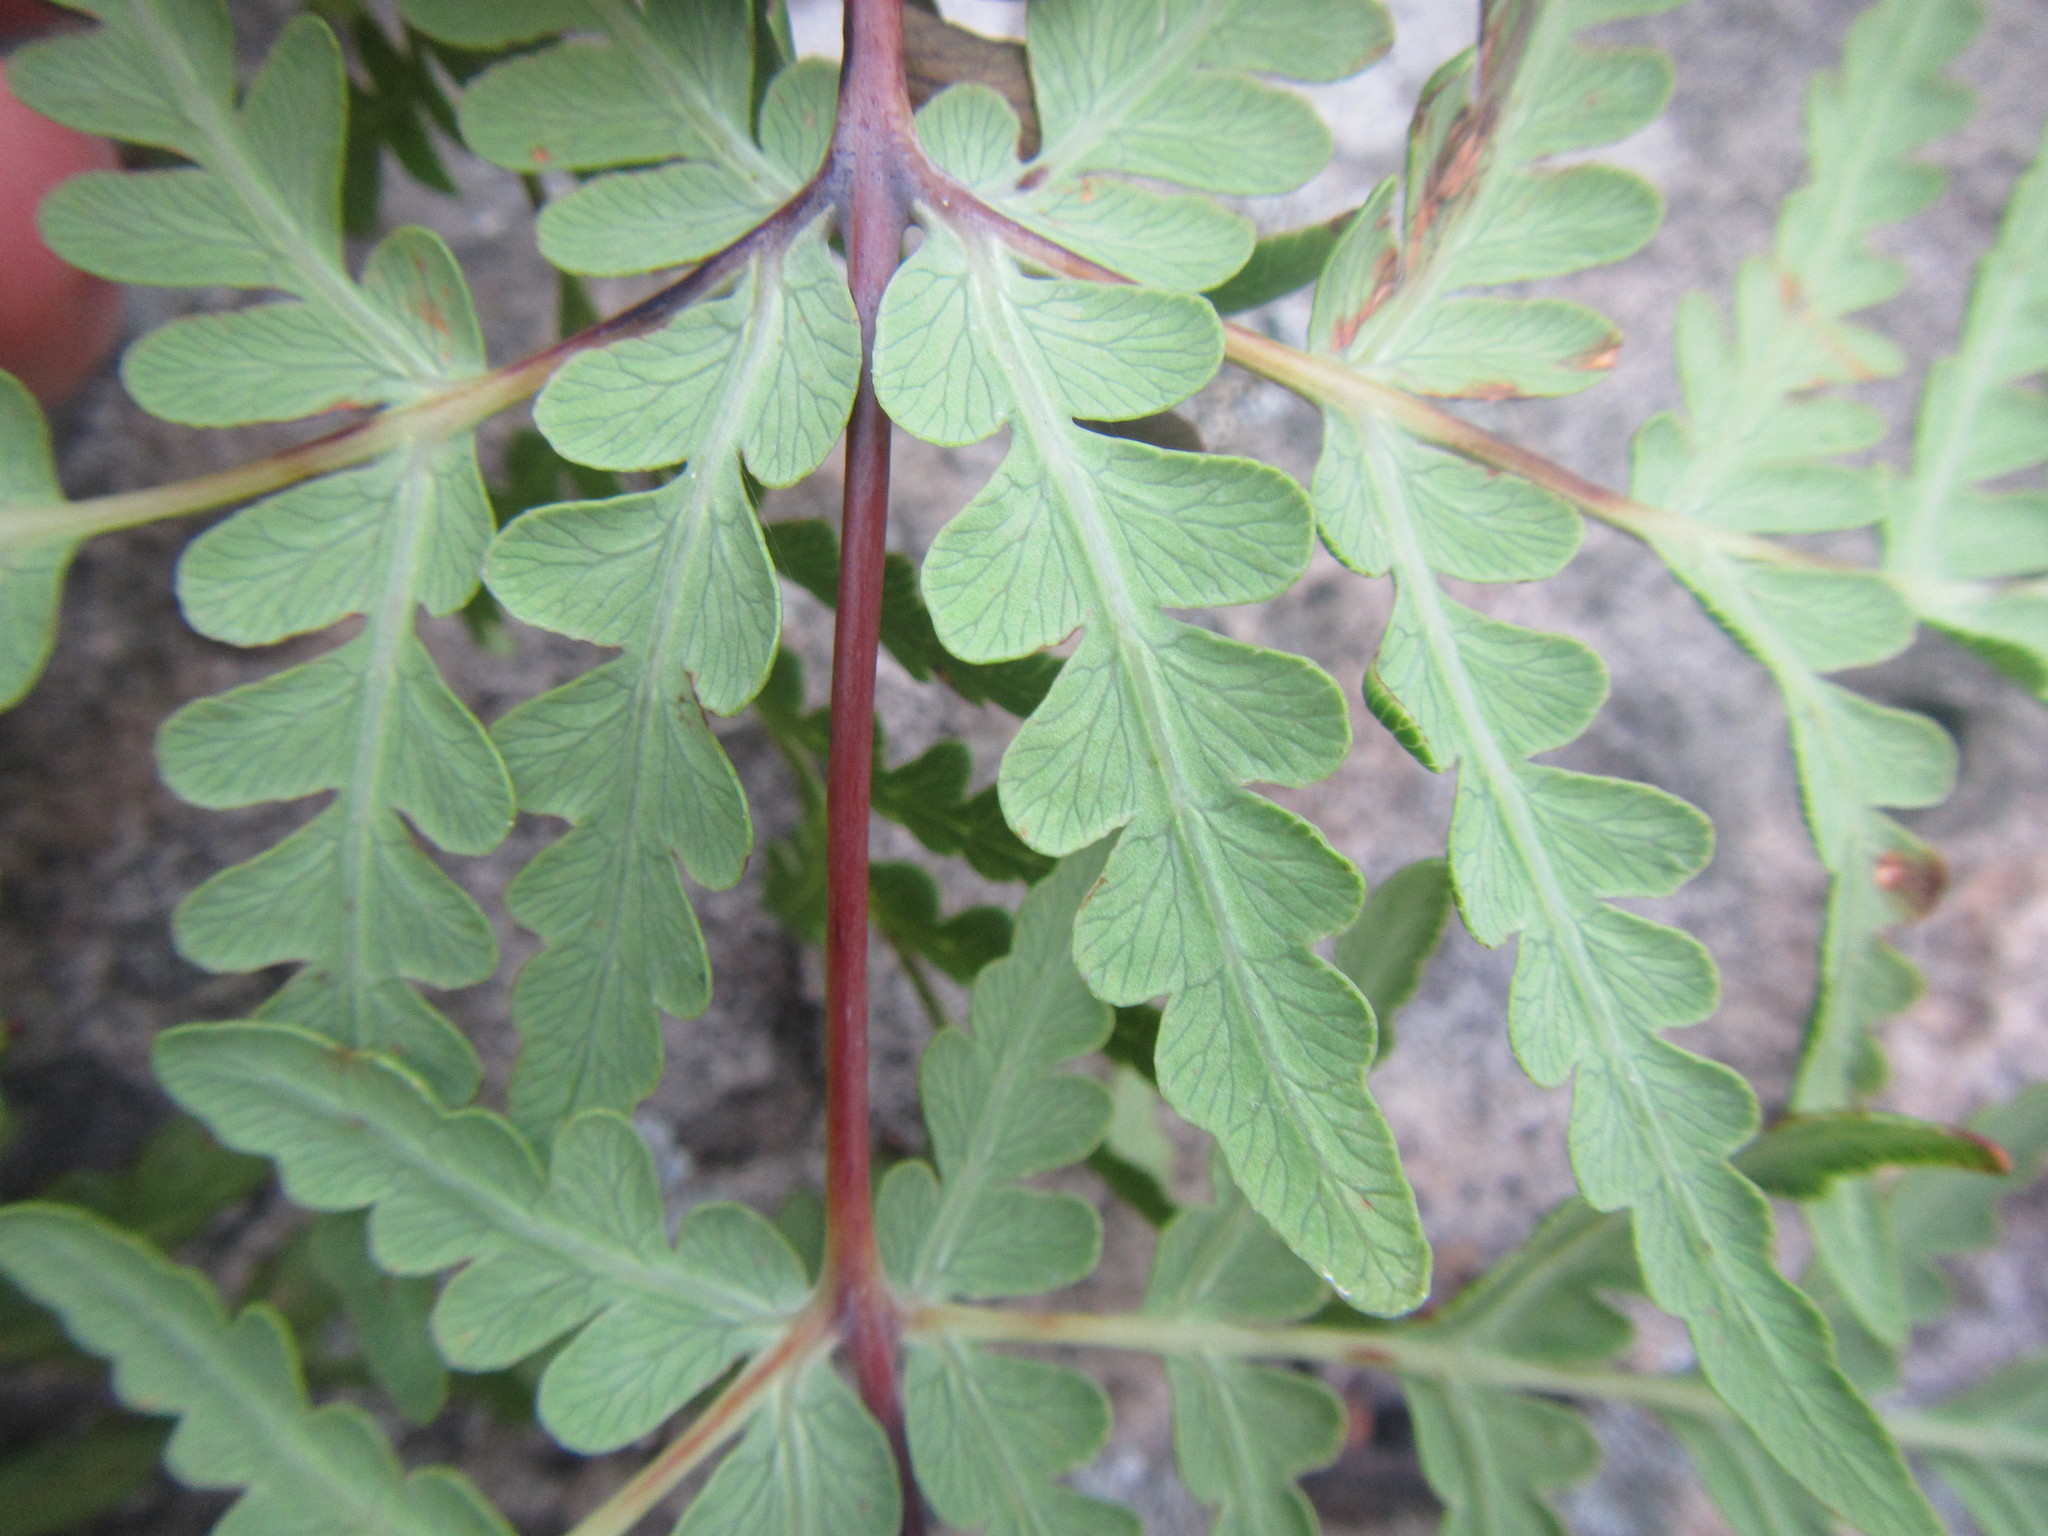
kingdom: Plantae
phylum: Tracheophyta
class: Polypodiopsida
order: Polypodiales
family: Dennstaedtiaceae
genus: Histiopteris
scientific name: Histiopteris incisa
